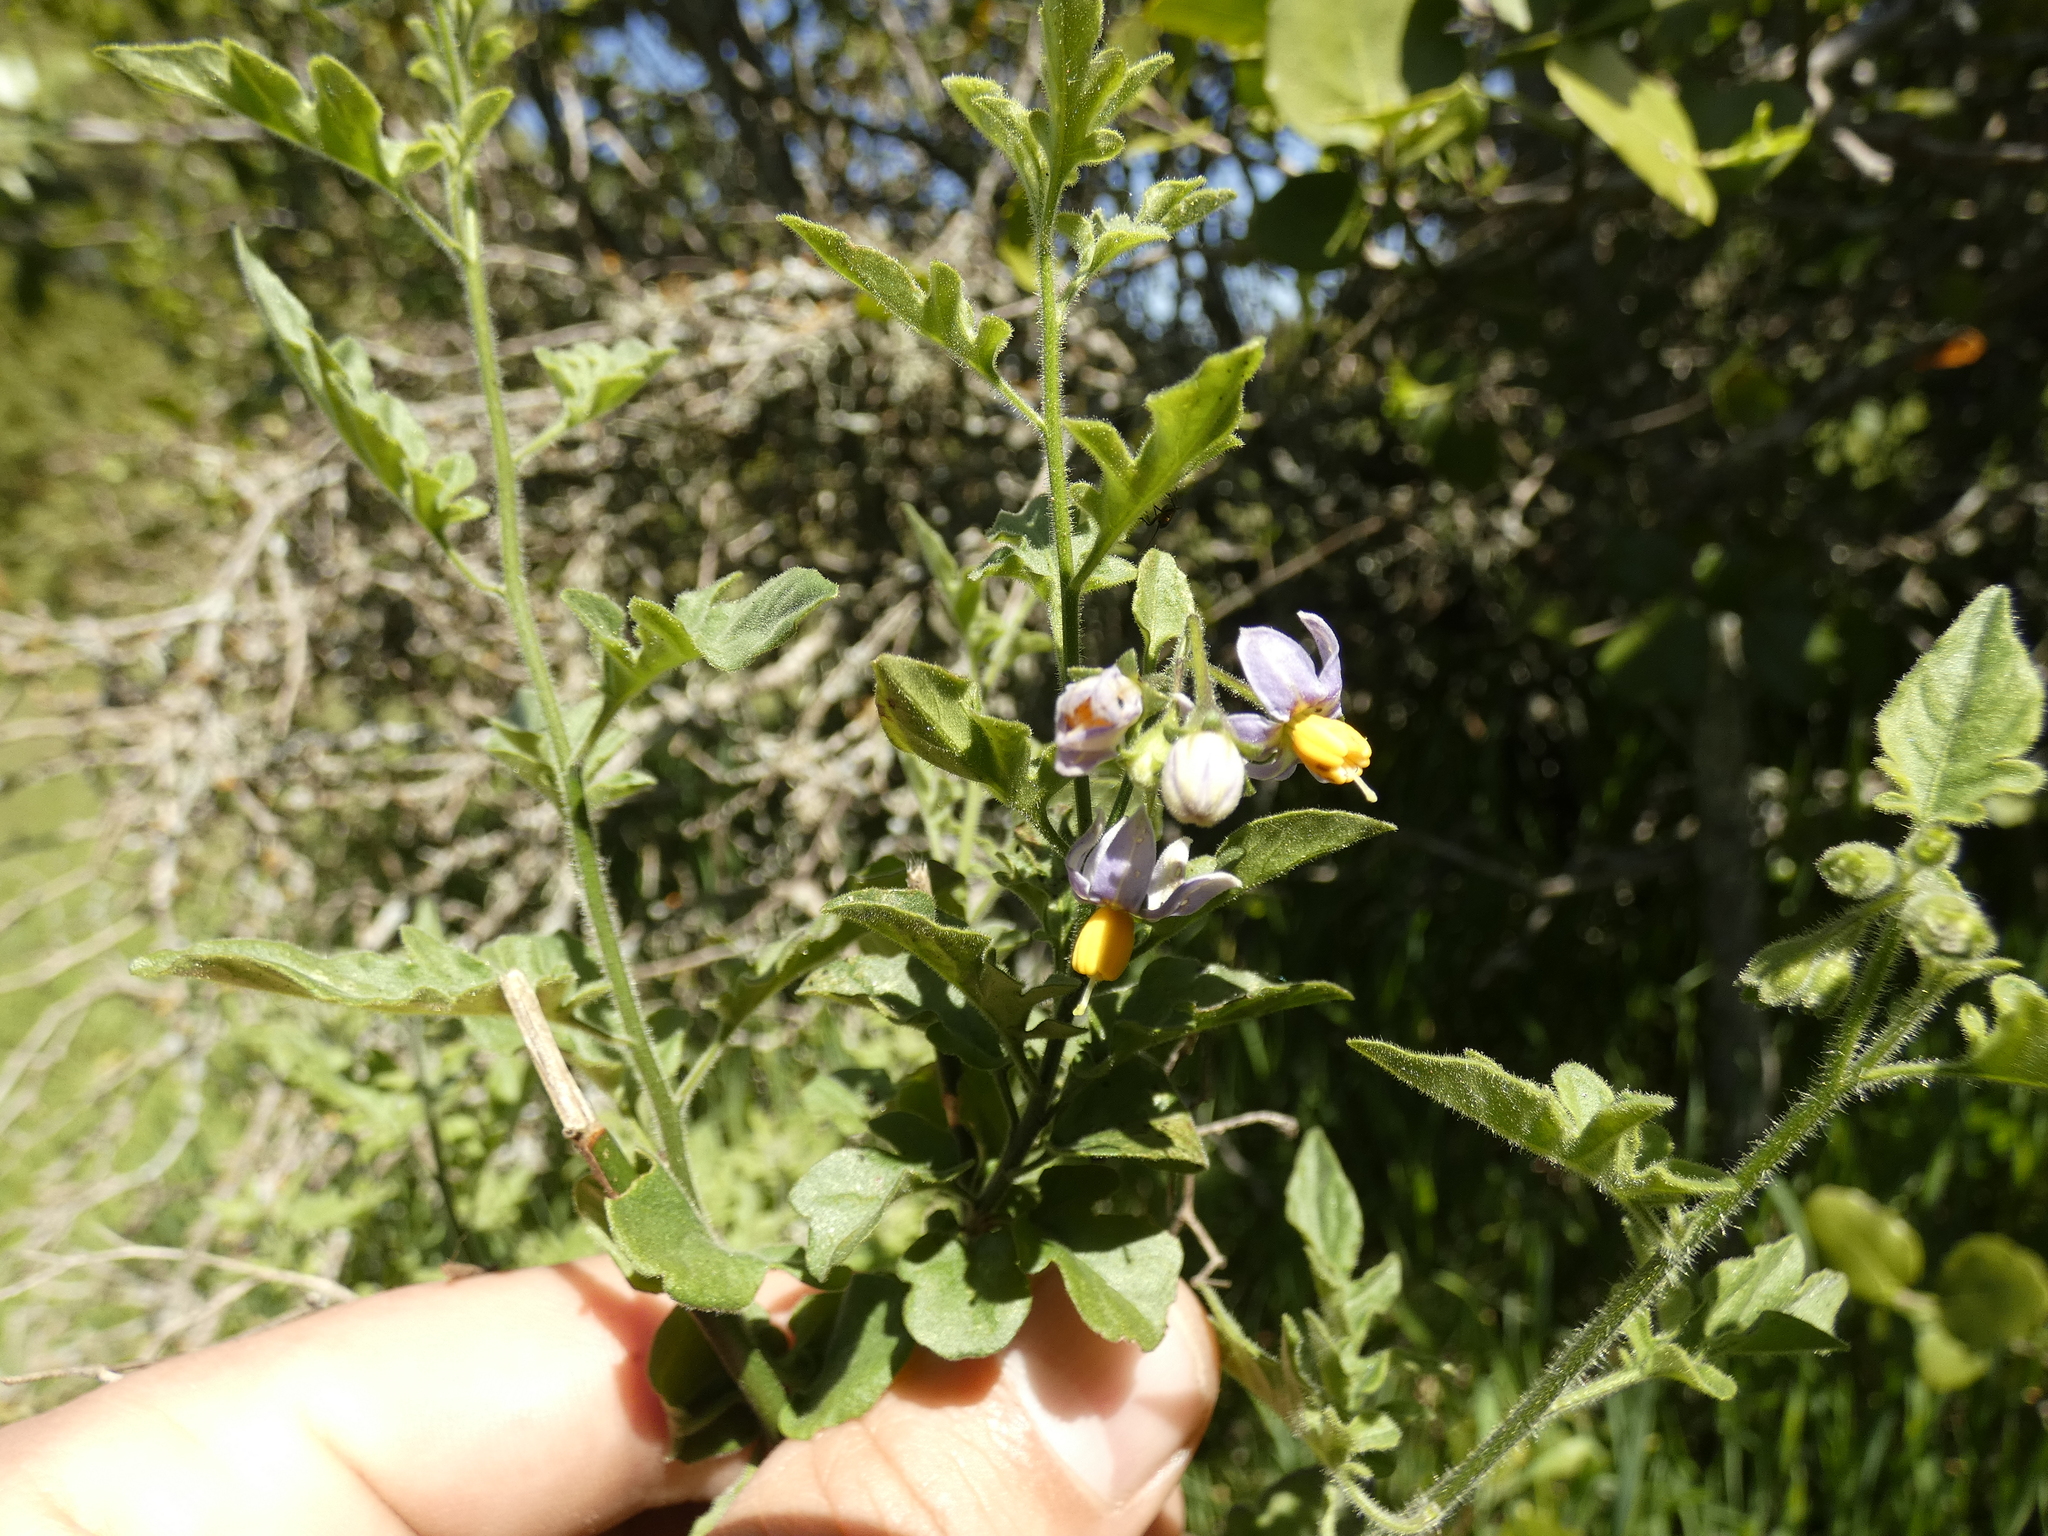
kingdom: Plantae
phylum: Tracheophyta
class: Magnoliopsida
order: Solanales
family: Solanaceae
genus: Solanum
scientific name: Solanum alphonsi
